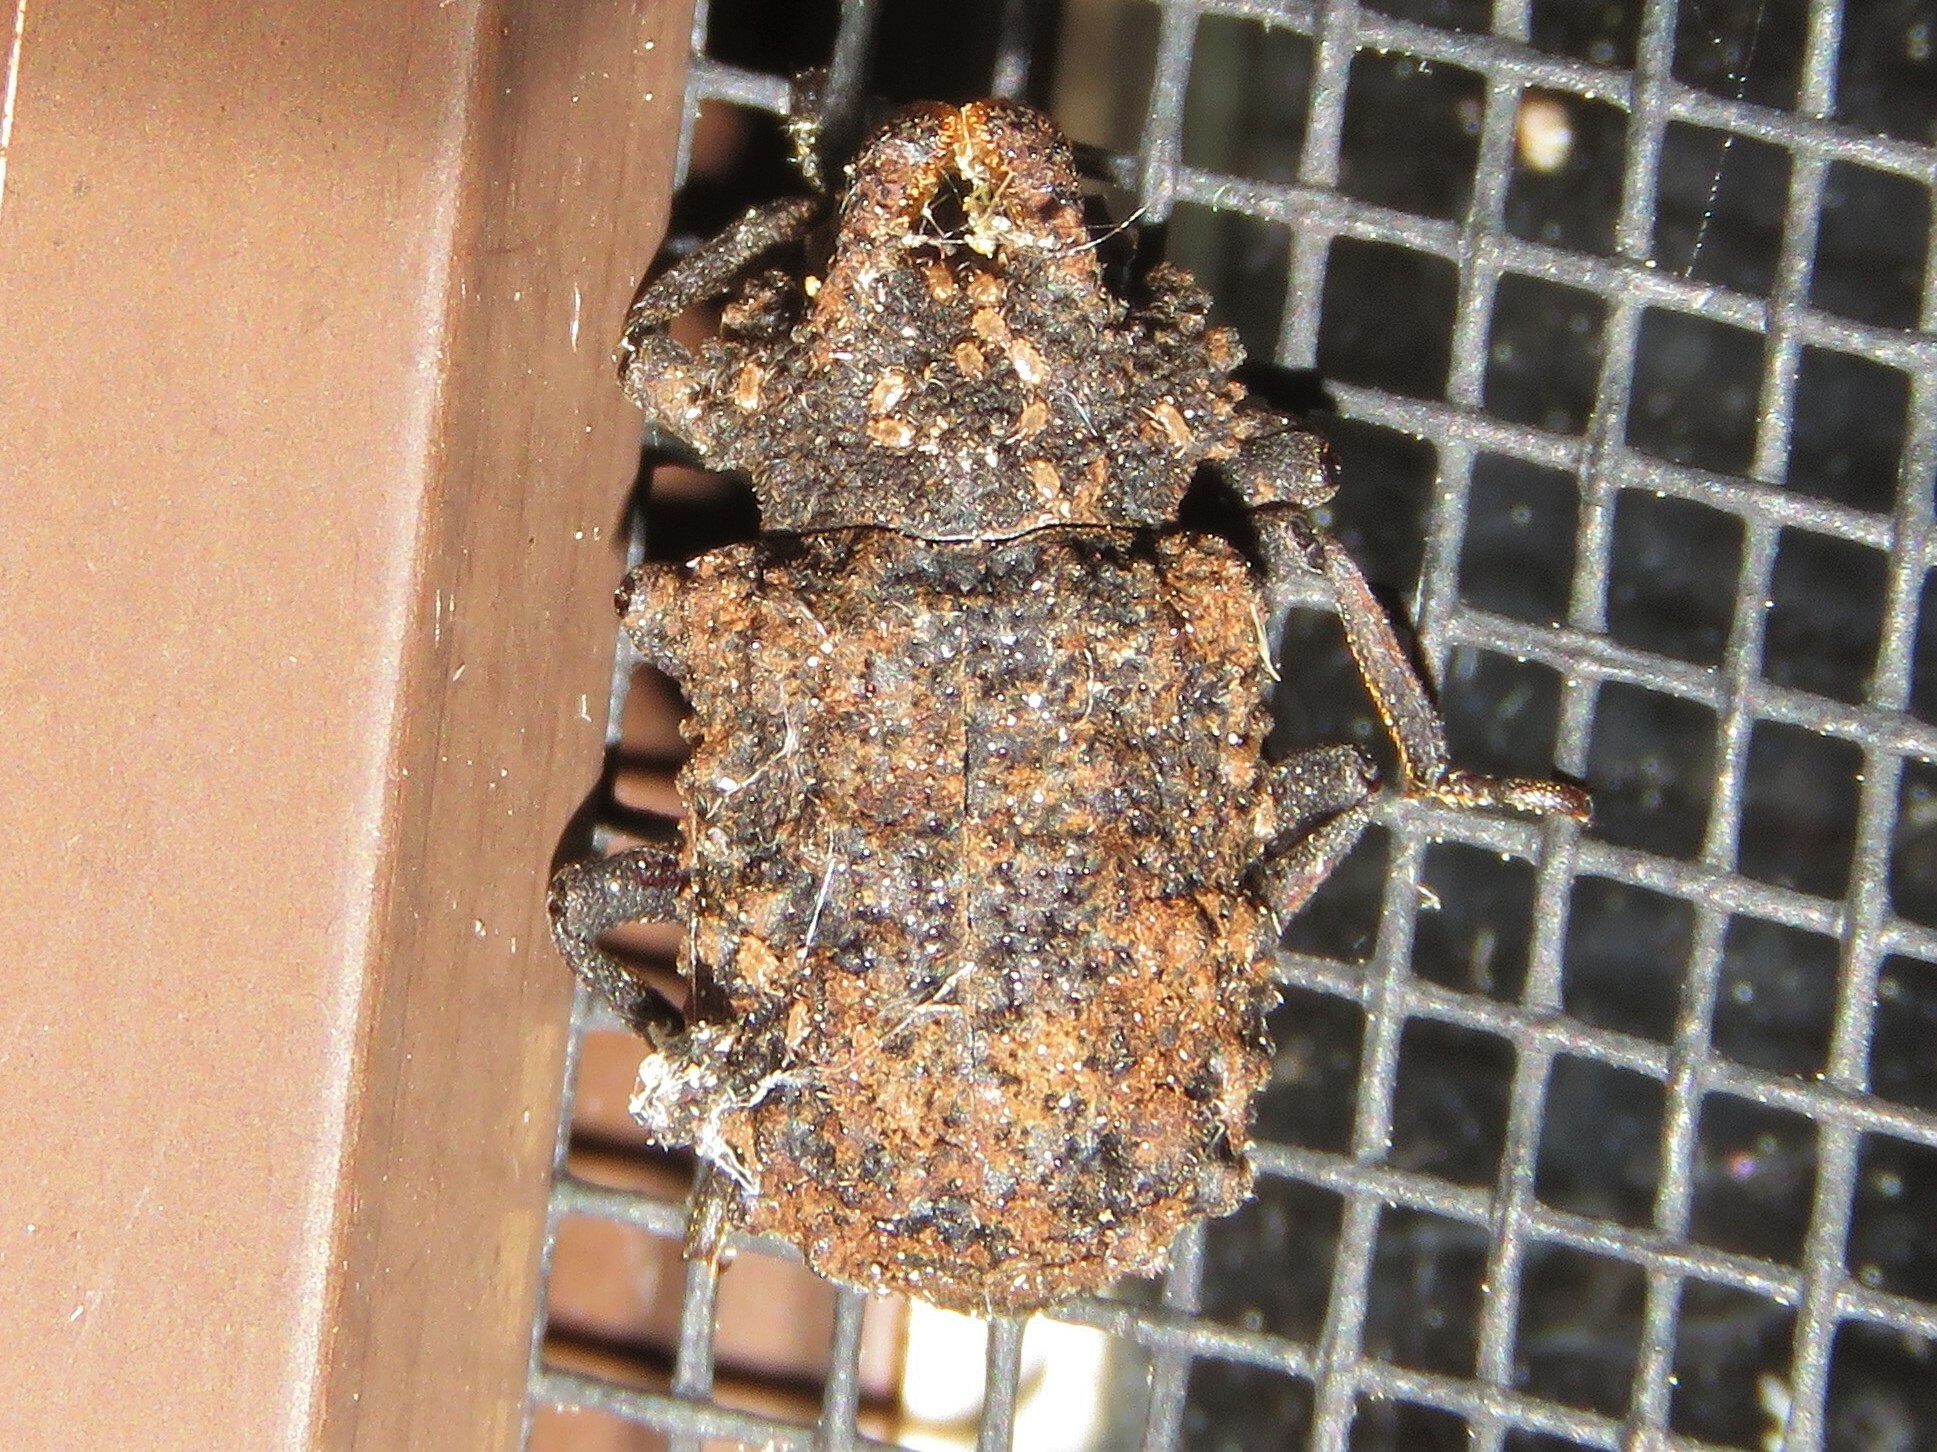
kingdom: Animalia
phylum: Arthropoda
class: Insecta
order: Coleoptera
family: Tenebrionidae
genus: Gnatocerus
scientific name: Gnatocerus cornutus
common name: Broad-horned flour beetle
